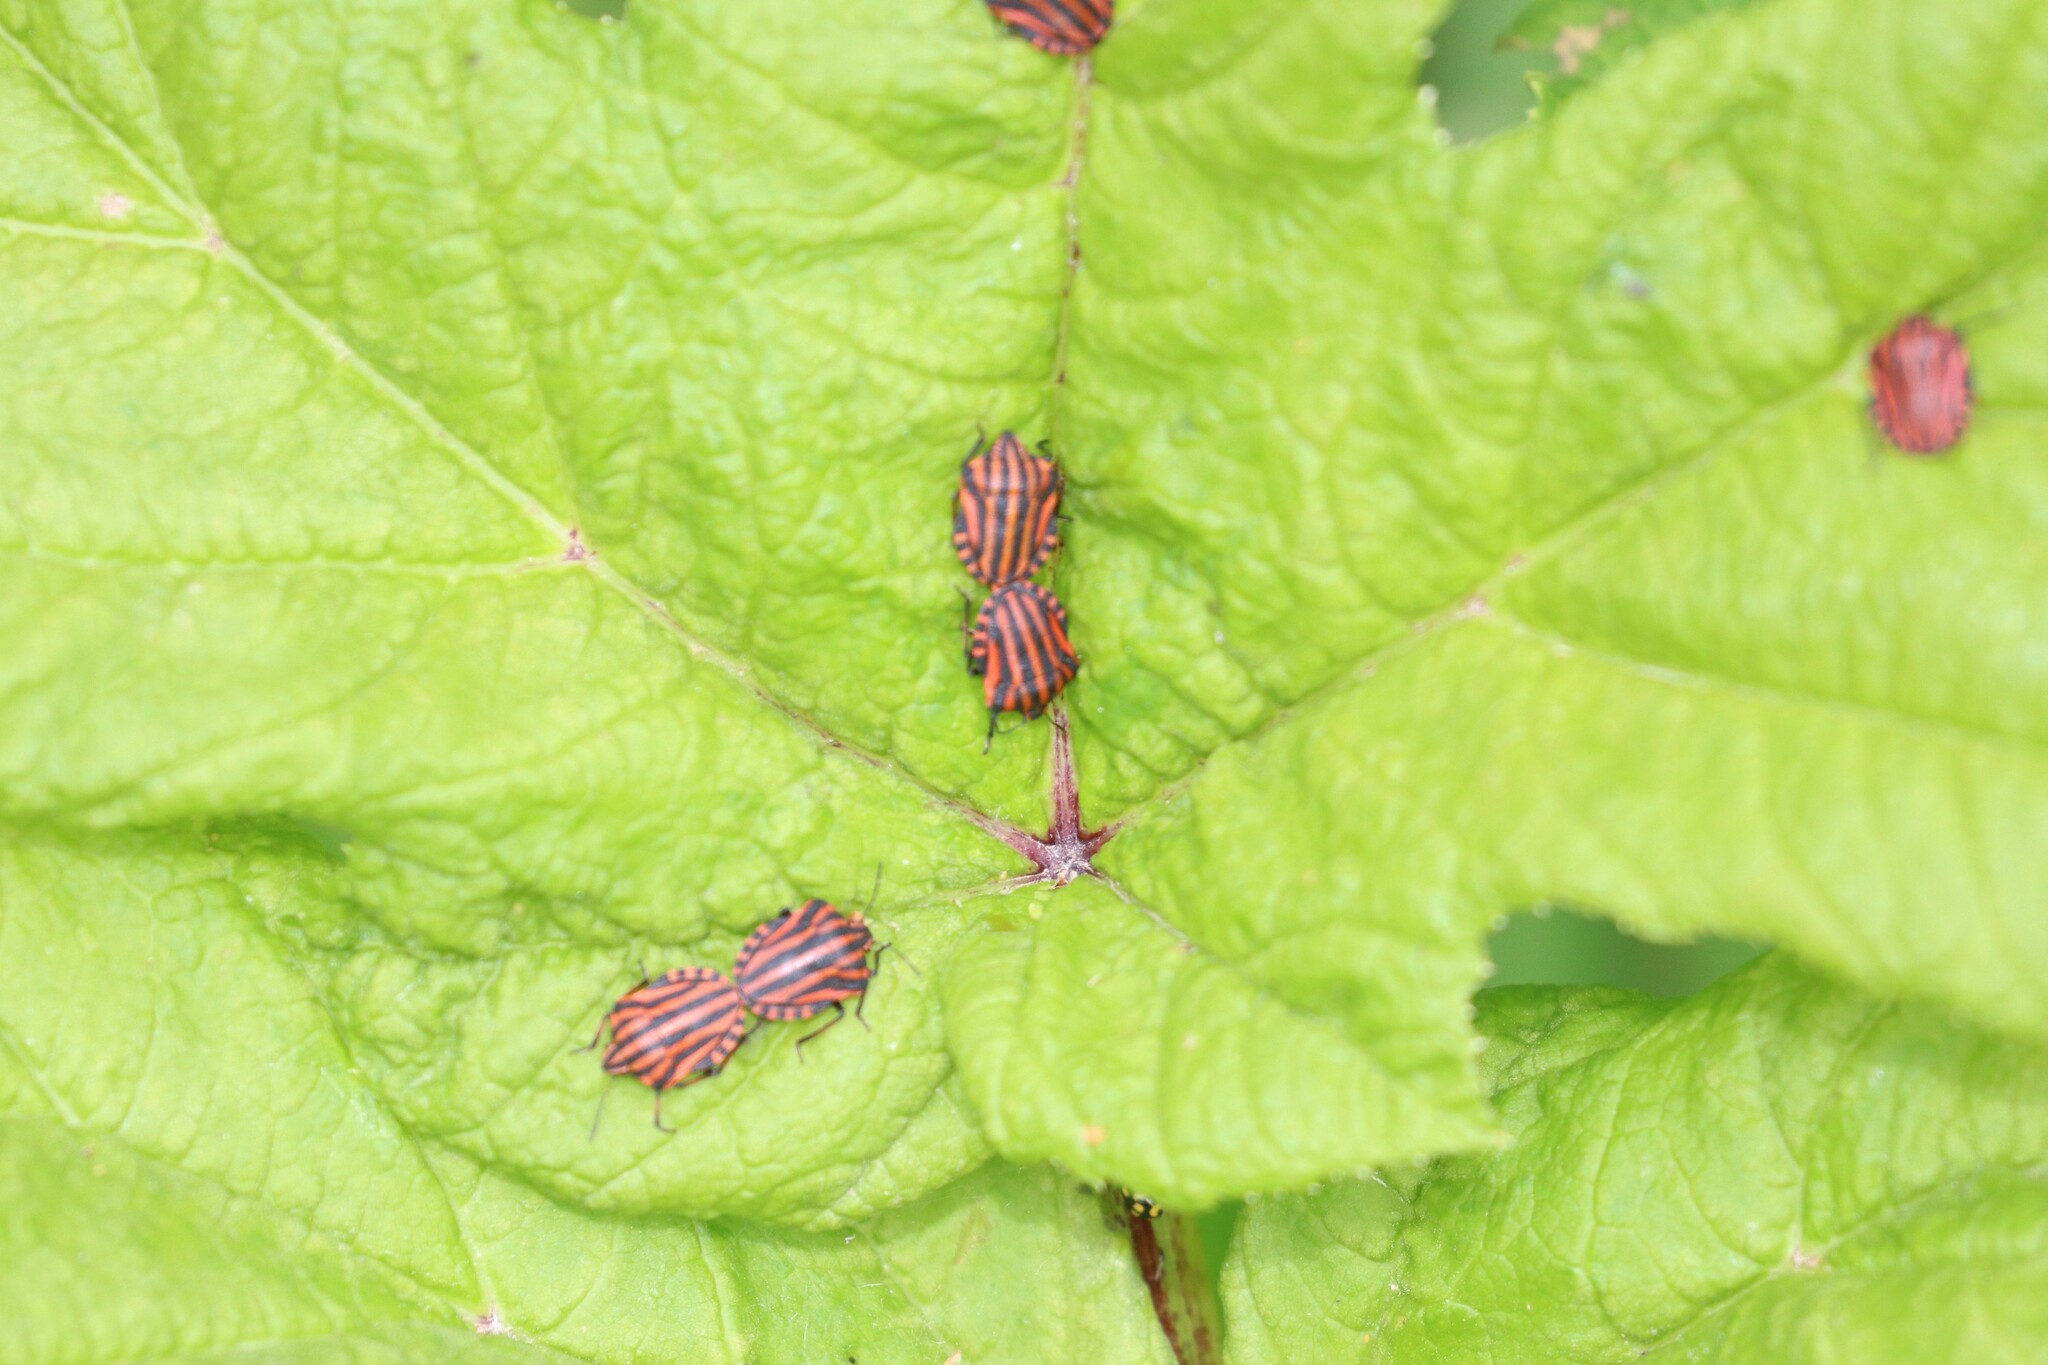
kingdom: Animalia
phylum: Arthropoda
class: Insecta
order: Hemiptera
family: Pentatomidae
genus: Graphosoma
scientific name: Graphosoma italicum
